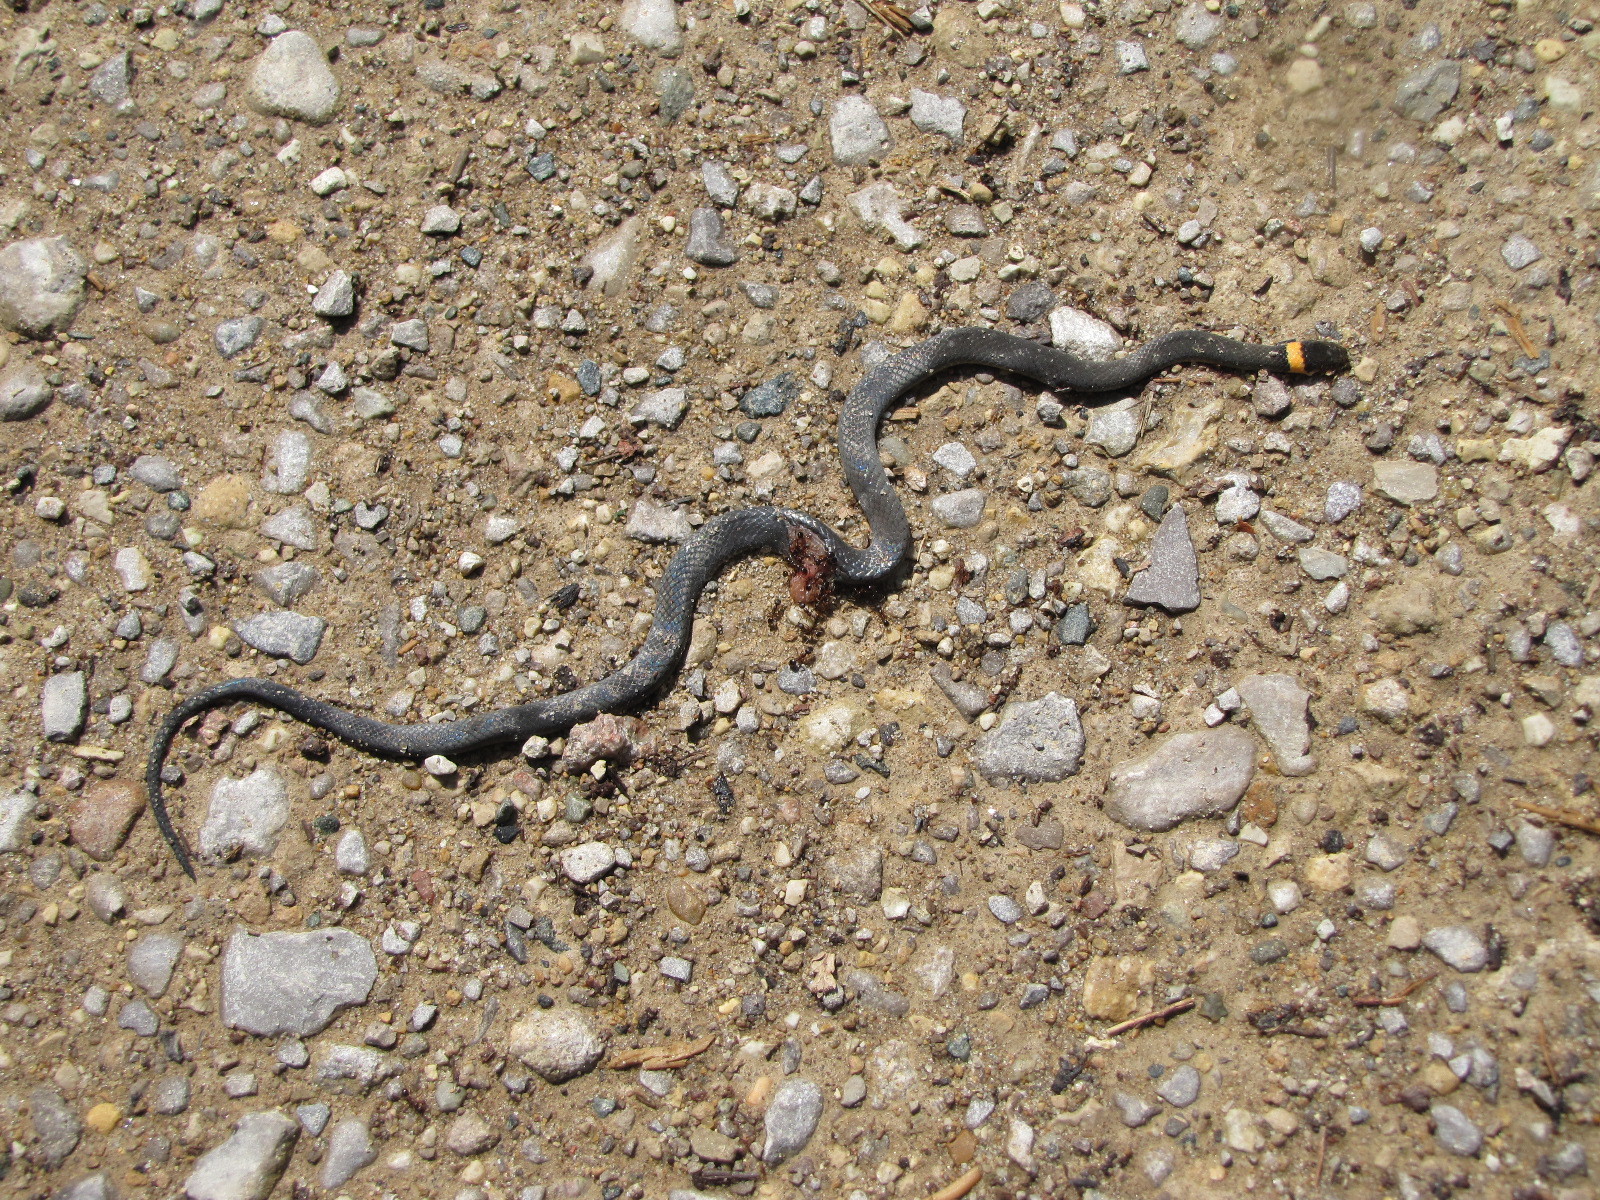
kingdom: Animalia
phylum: Chordata
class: Squamata
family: Colubridae
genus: Diadophis
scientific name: Diadophis punctatus
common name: Ringneck snake
